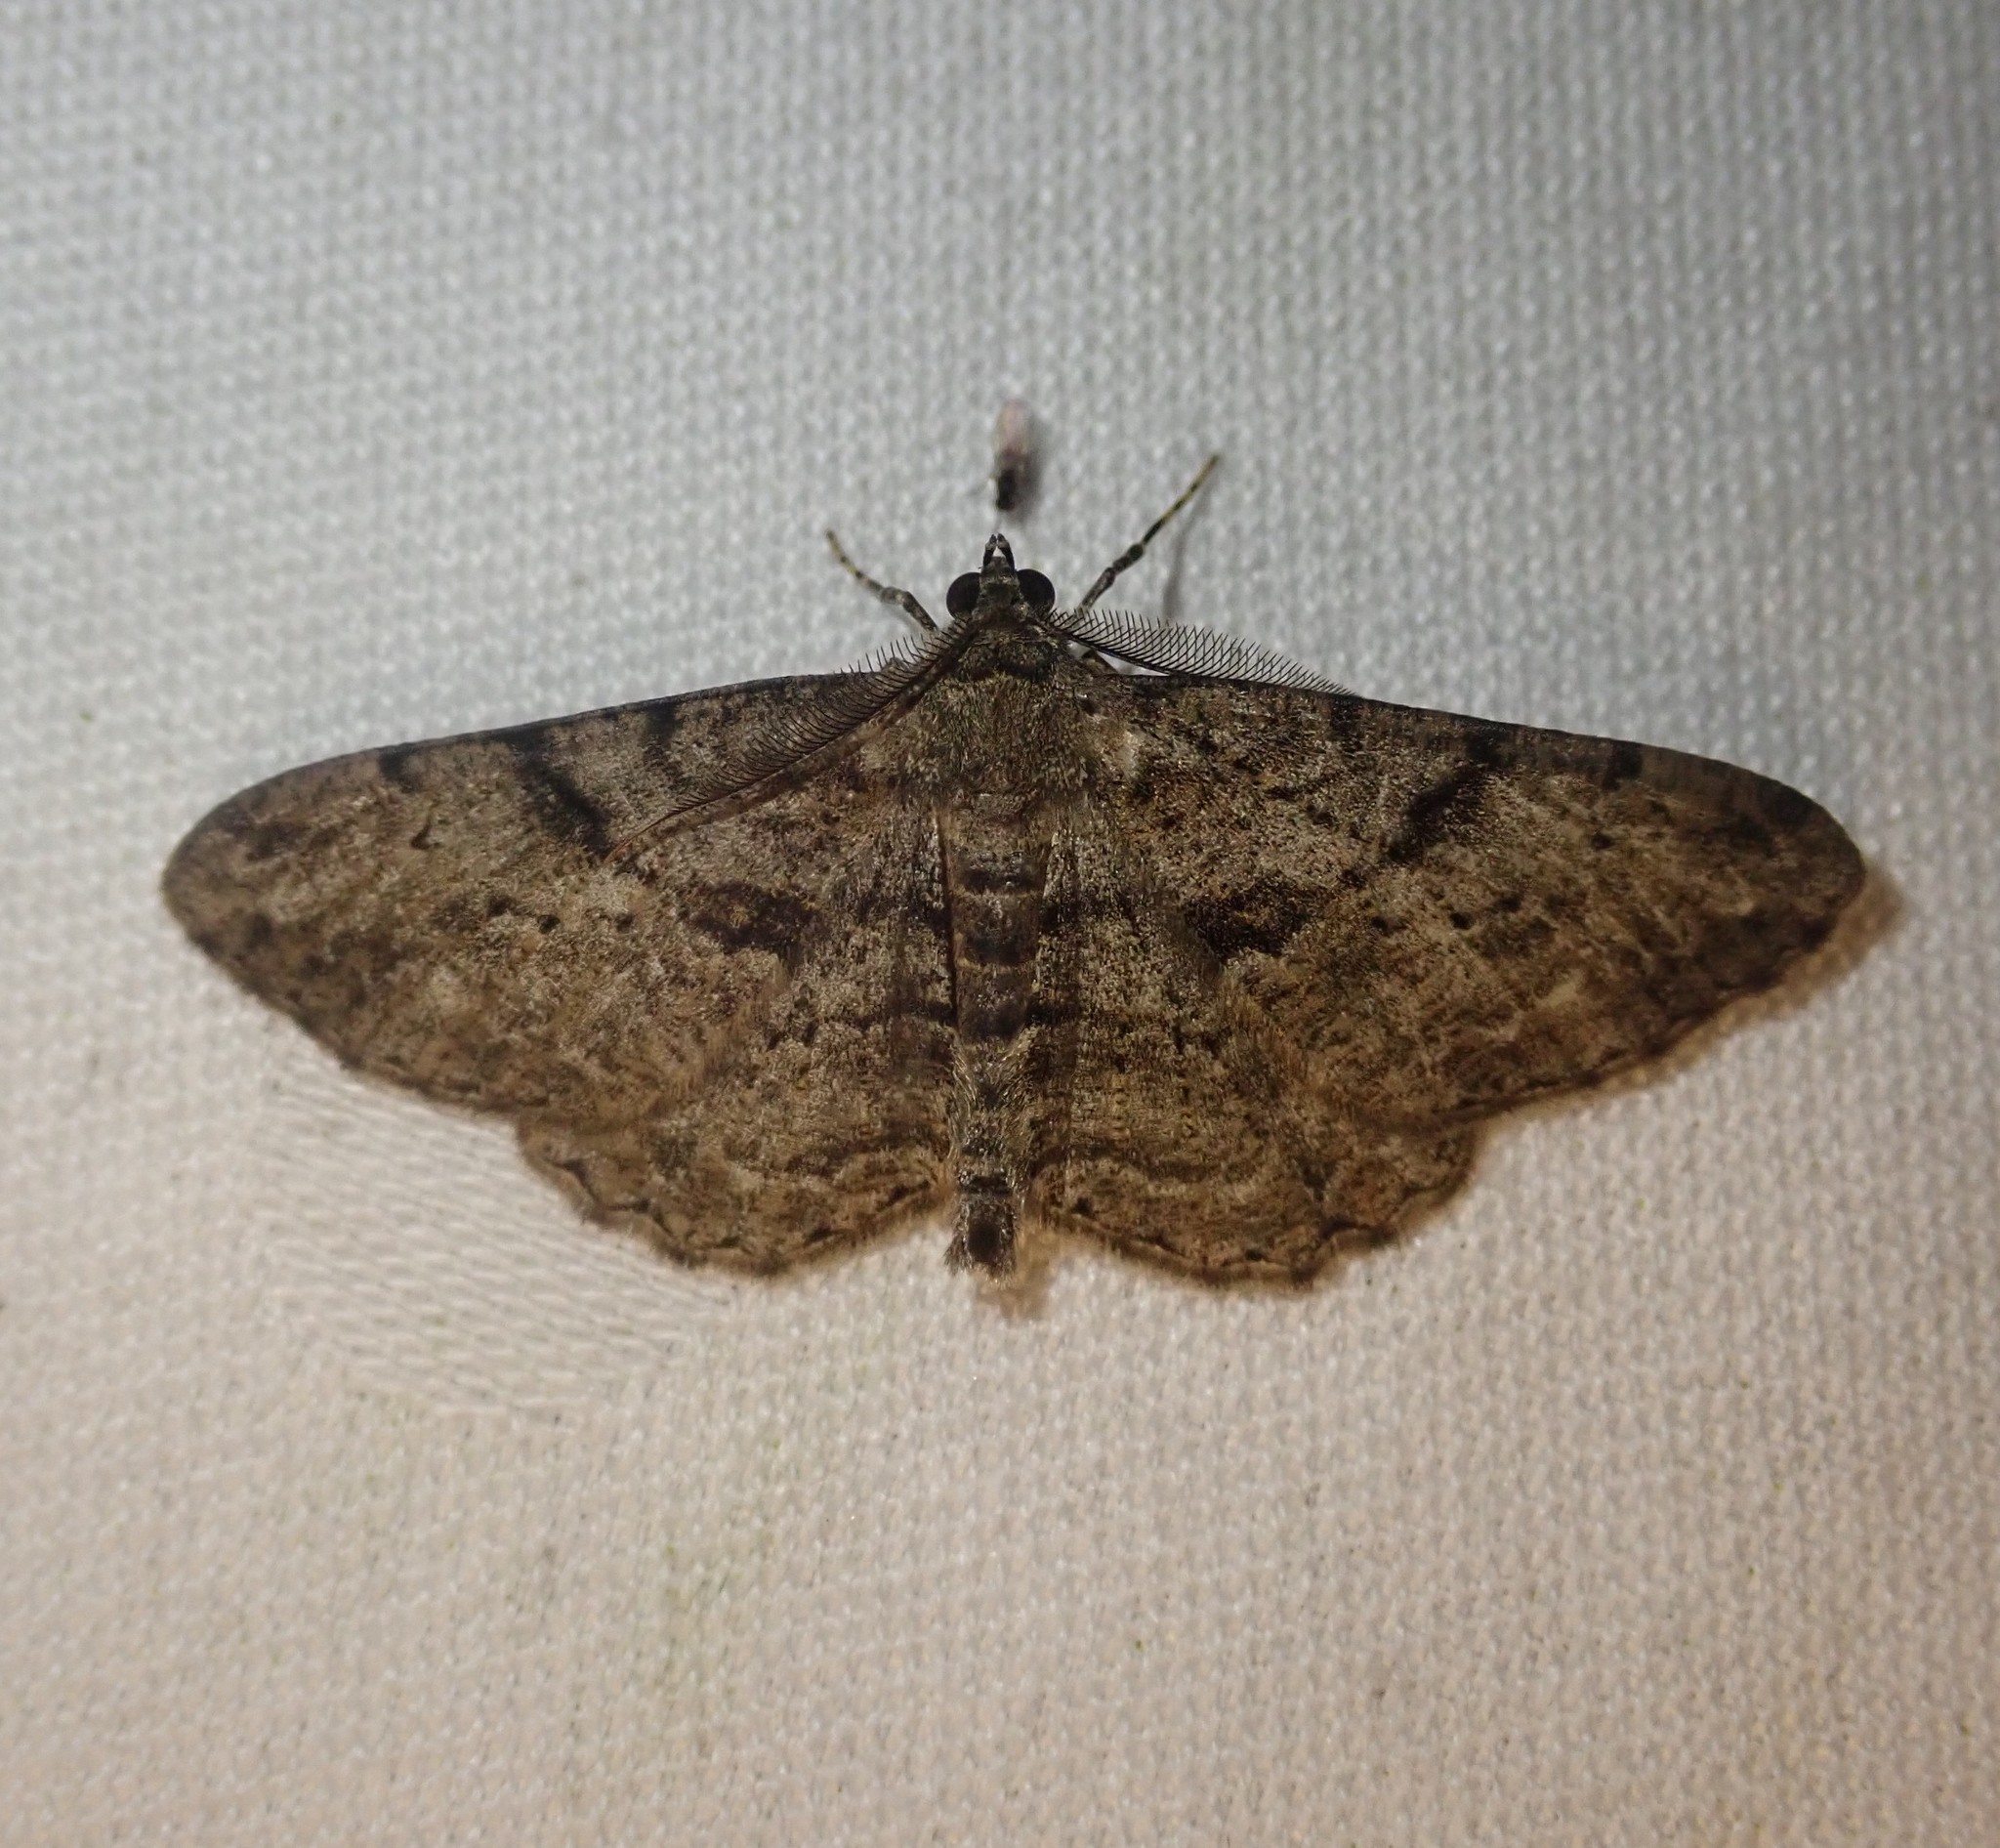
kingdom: Animalia
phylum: Arthropoda
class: Insecta
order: Lepidoptera
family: Geometridae
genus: Peribatodes
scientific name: Peribatodes rhomboidaria
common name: Willow beauty
